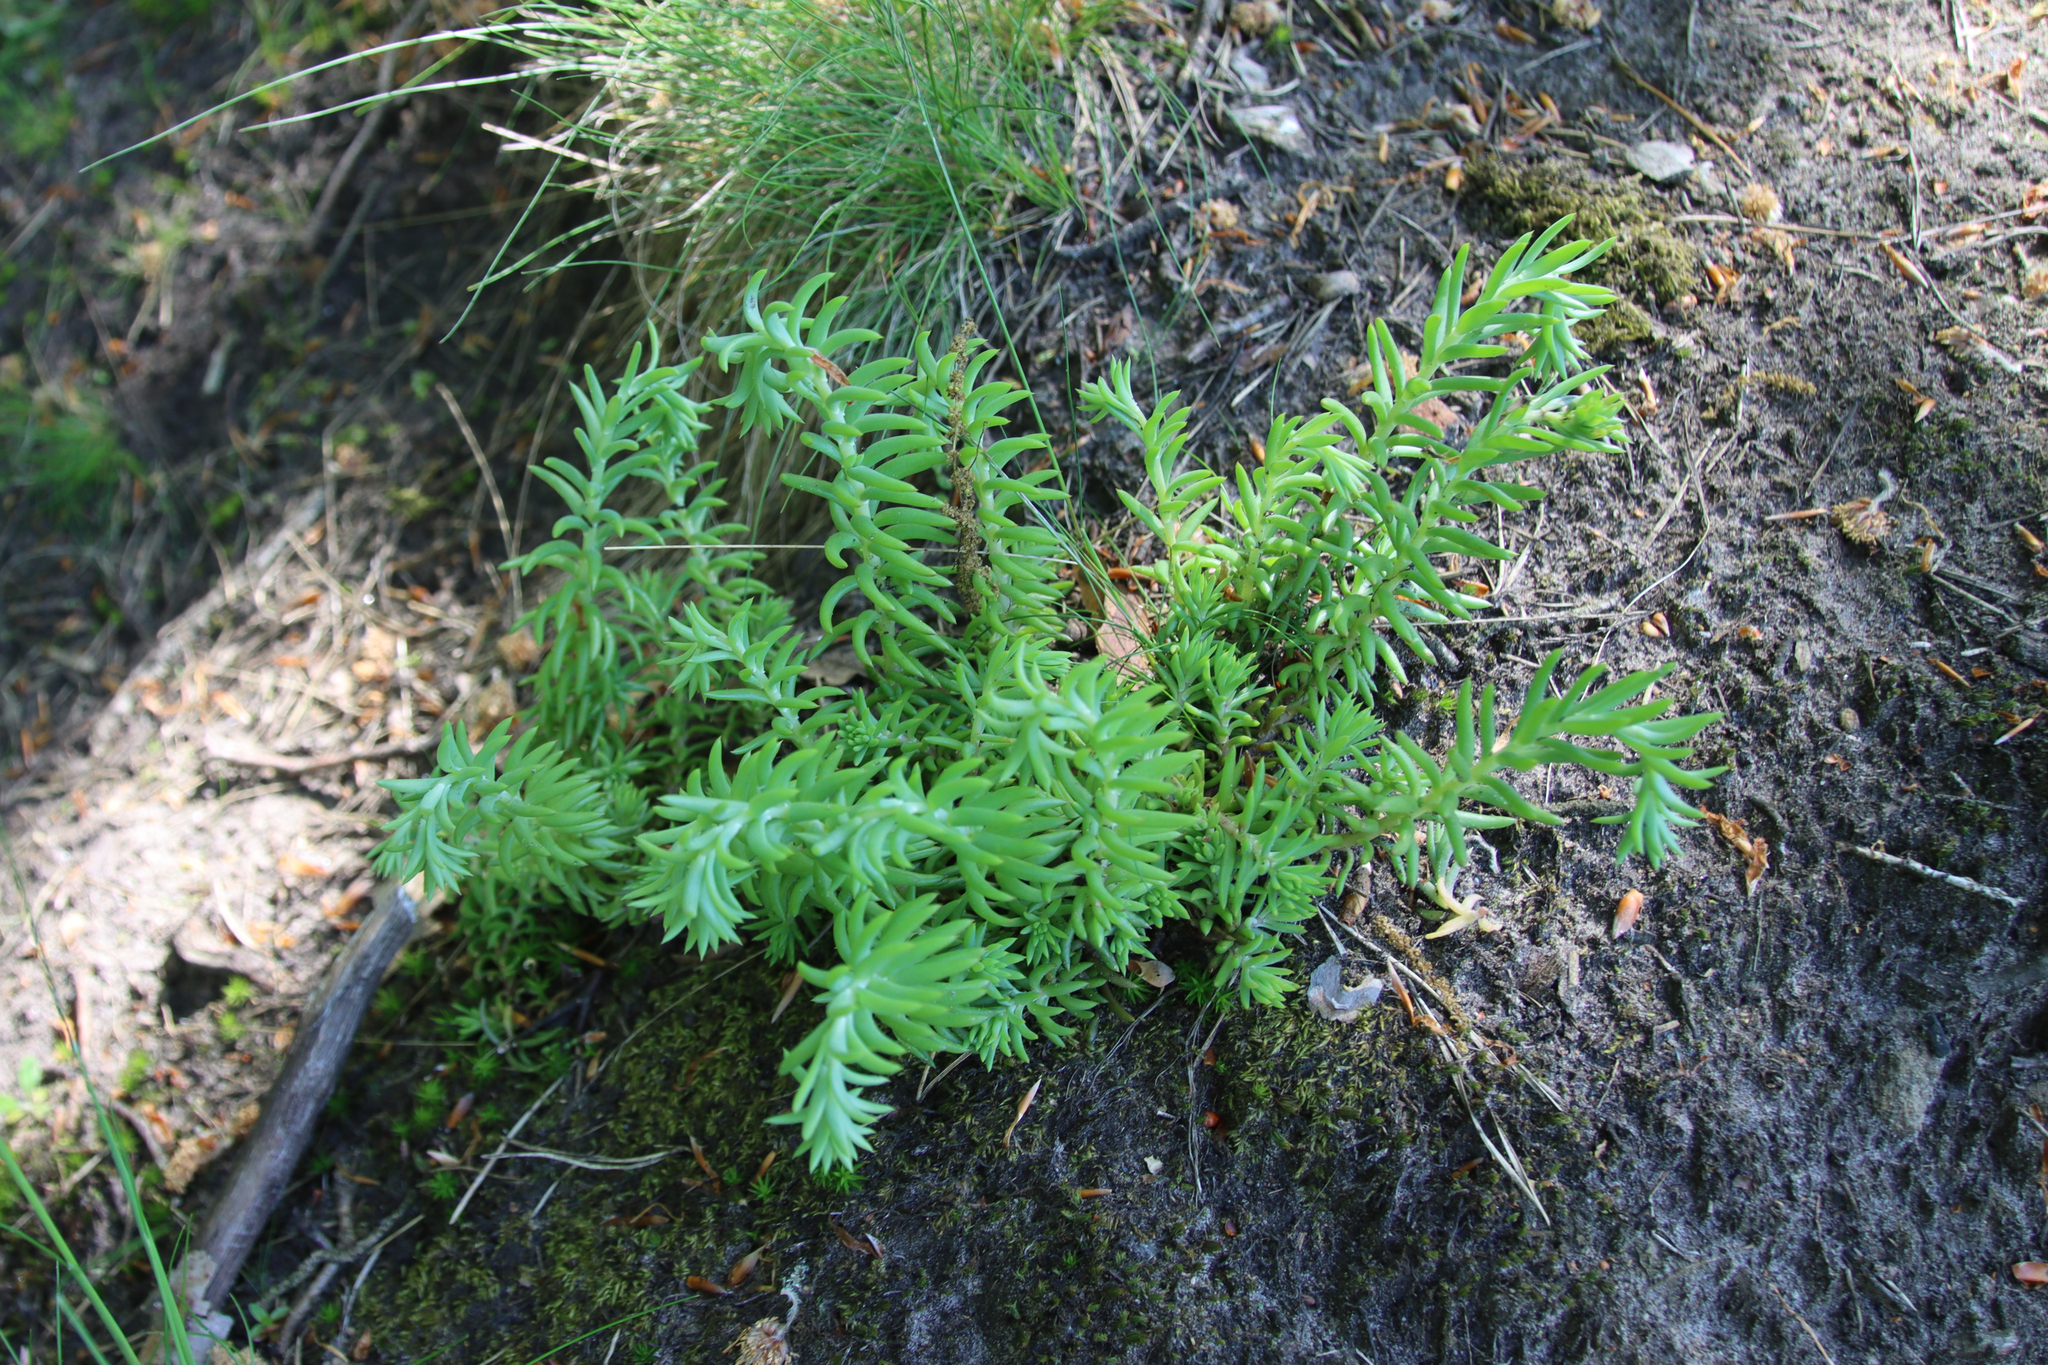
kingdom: Plantae
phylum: Tracheophyta
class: Magnoliopsida
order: Saxifragales
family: Crassulaceae
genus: Petrosedum
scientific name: Petrosedum rupestre
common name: Jenny's stonecrop
